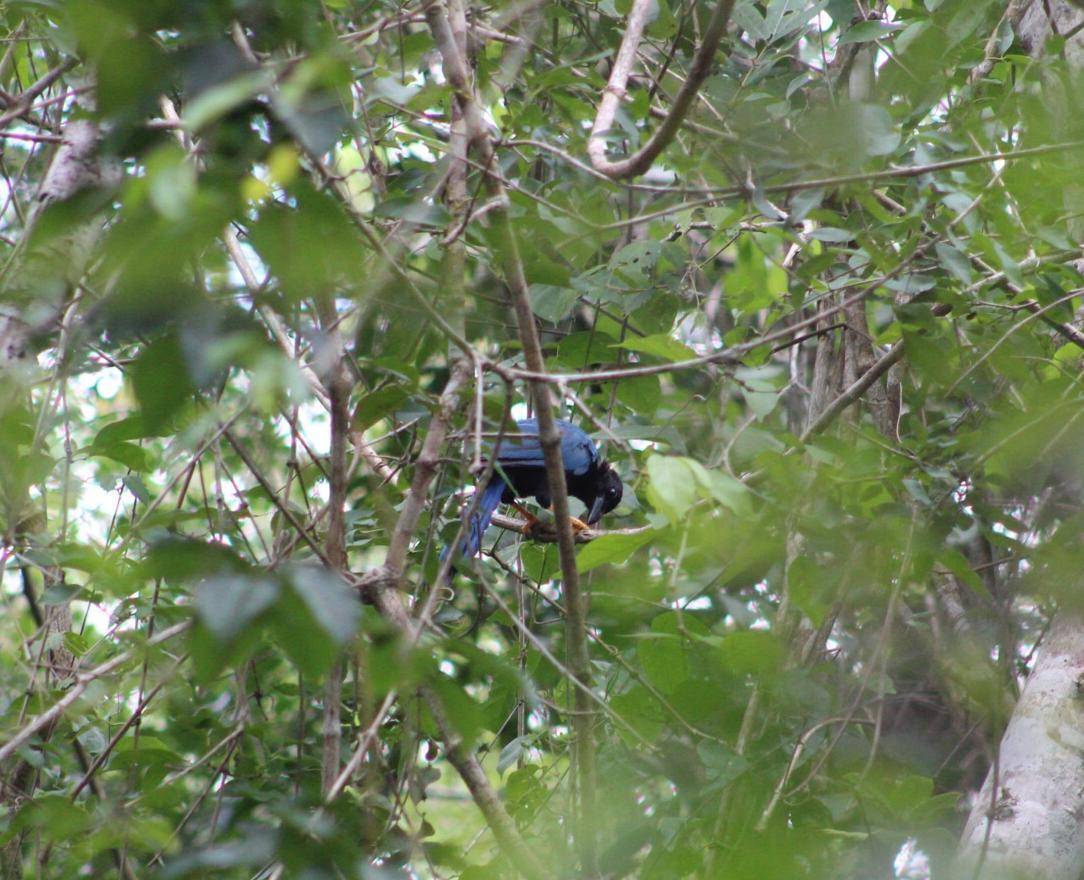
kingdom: Animalia
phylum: Chordata
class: Aves
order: Passeriformes
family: Corvidae
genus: Cyanocorax
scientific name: Cyanocorax yucatanicus
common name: Yucatan jay
